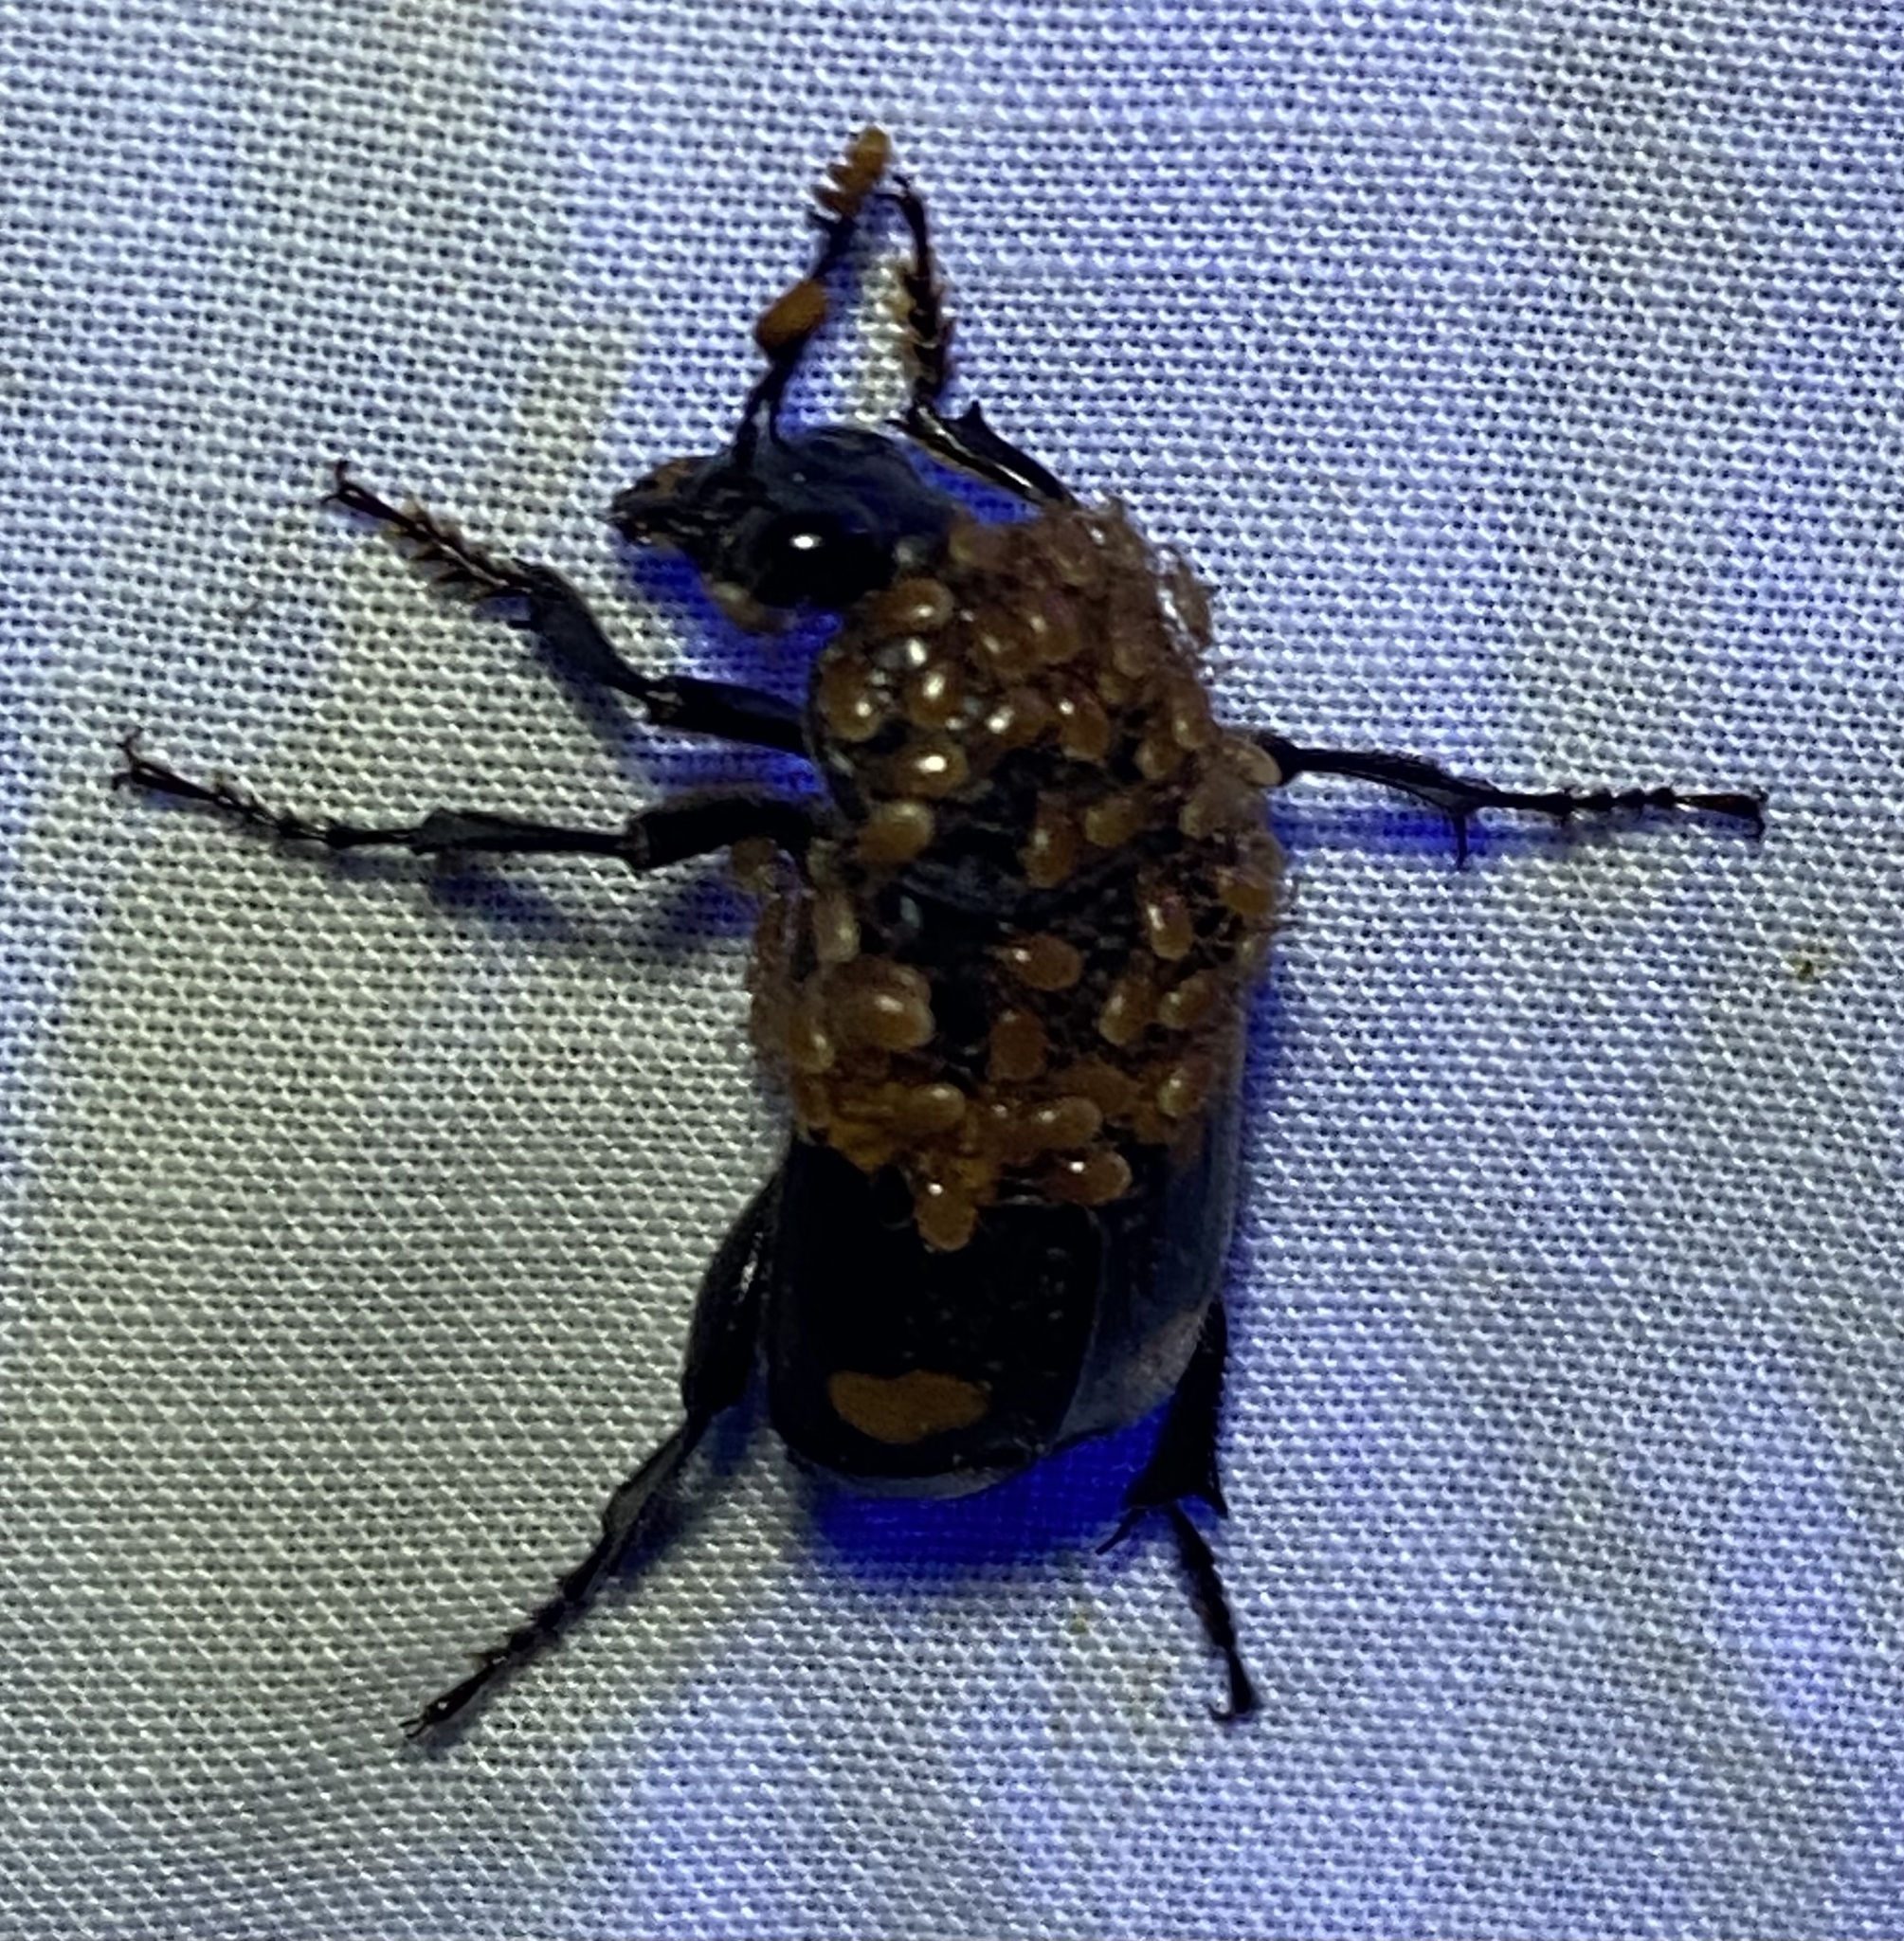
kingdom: Animalia
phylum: Arthropoda
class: Insecta
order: Coleoptera
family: Staphylinidae
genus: Nicrophorus
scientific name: Nicrophorus orbicollis
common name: Roundneck sexton beetle
